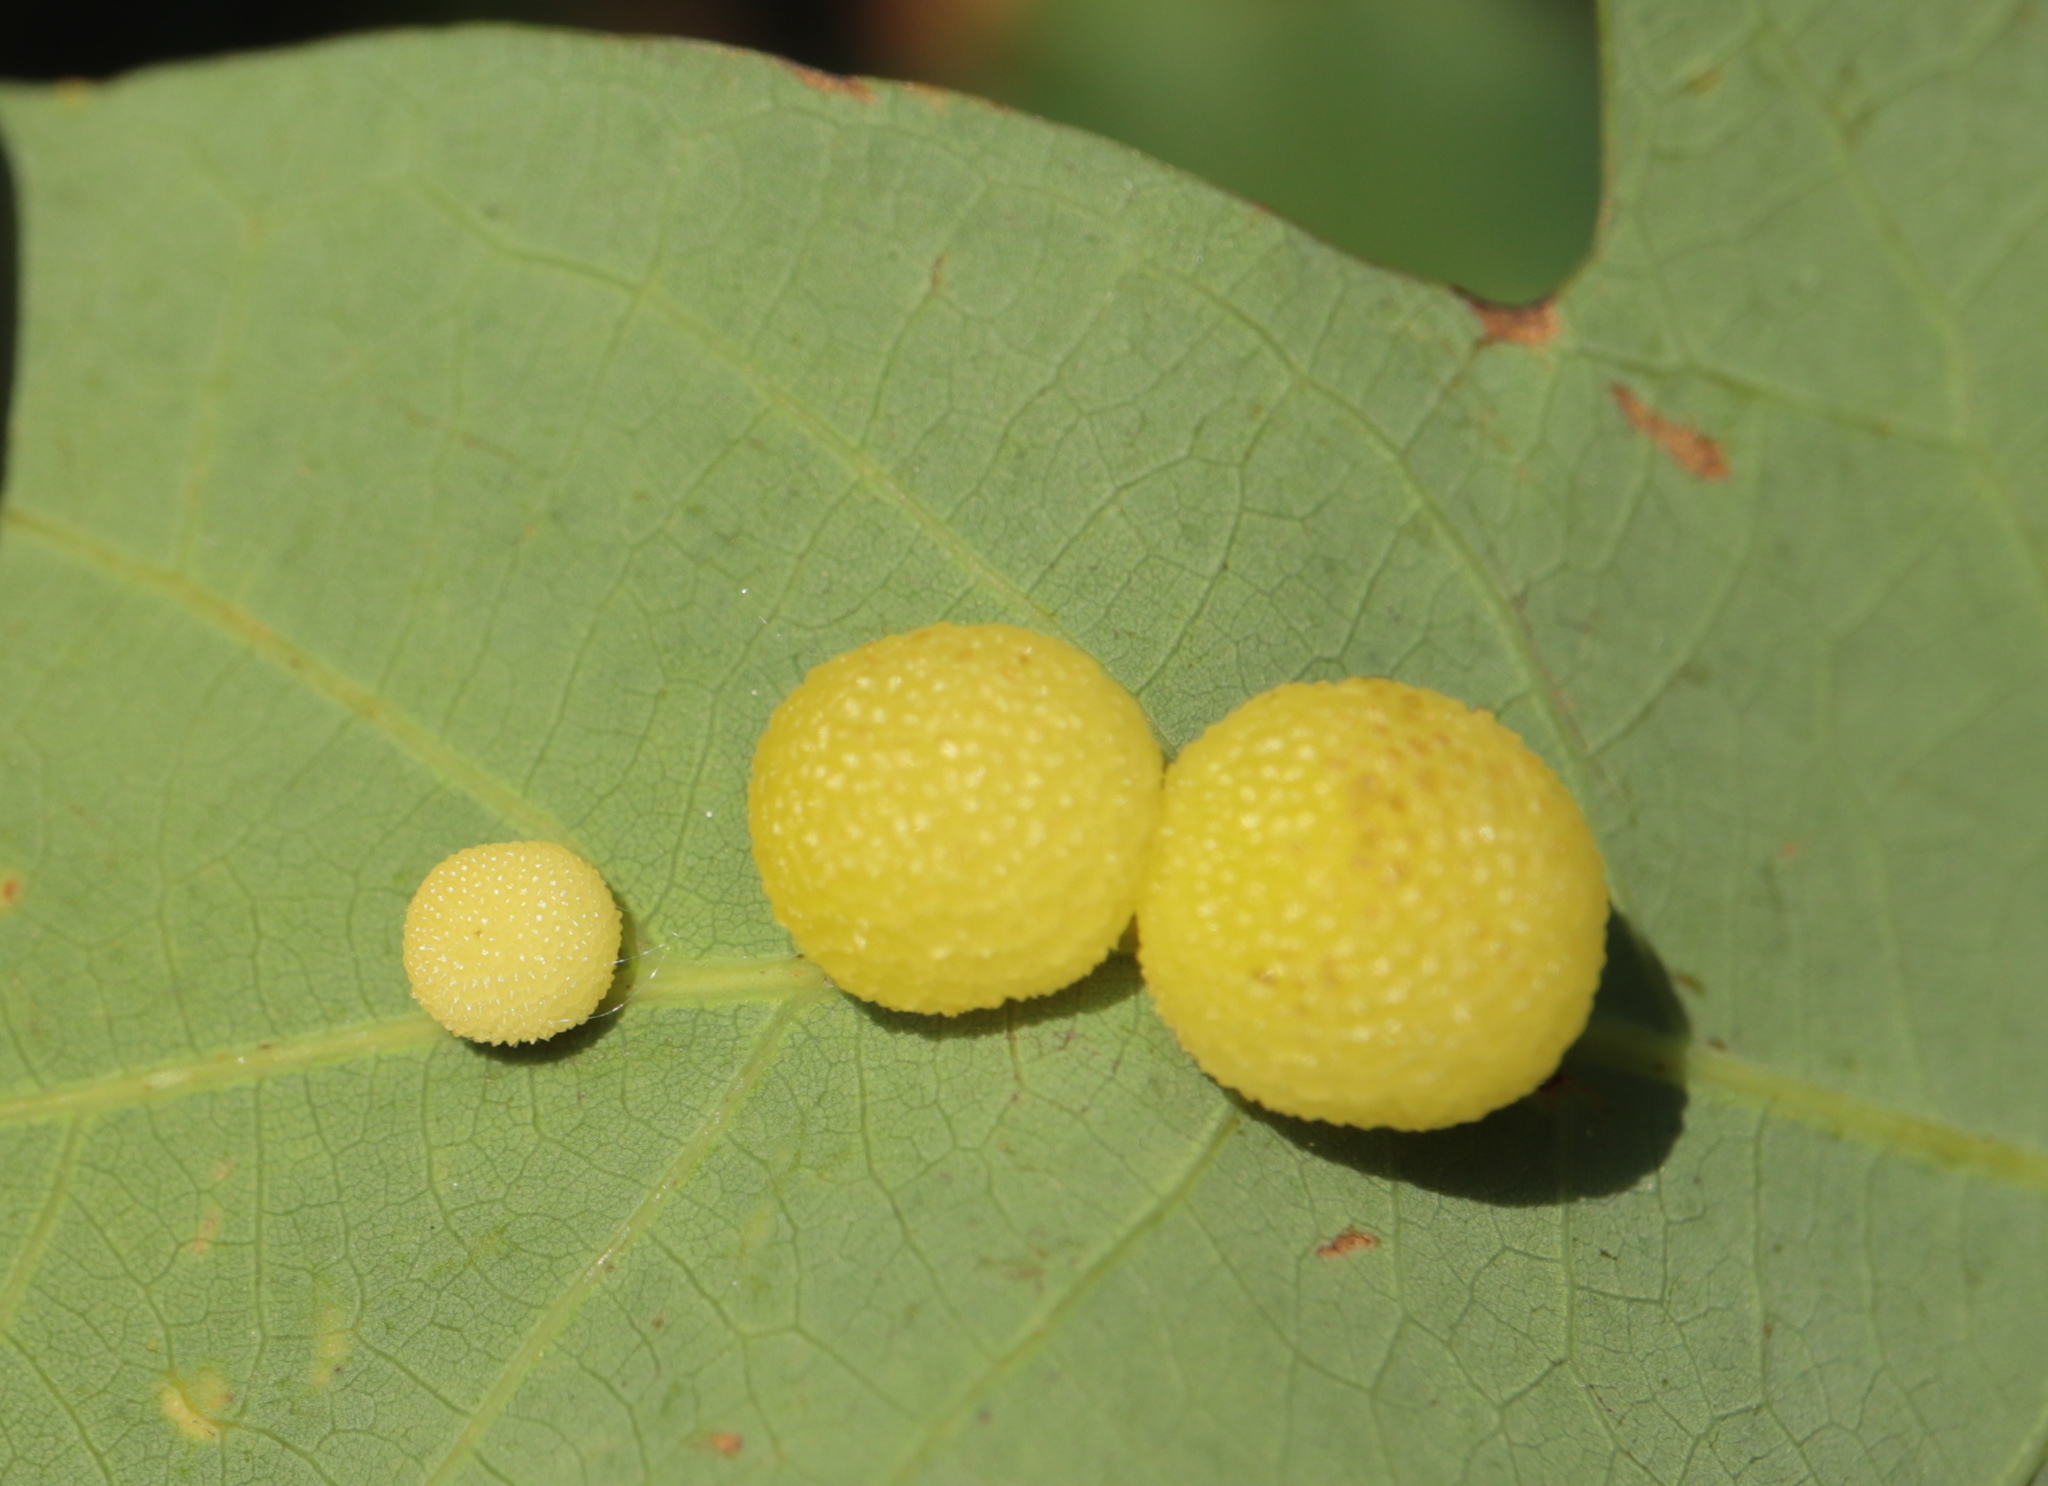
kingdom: Animalia
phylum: Arthropoda
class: Insecta
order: Hymenoptera
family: Cynipidae
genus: Acraspis
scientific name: Acraspis
